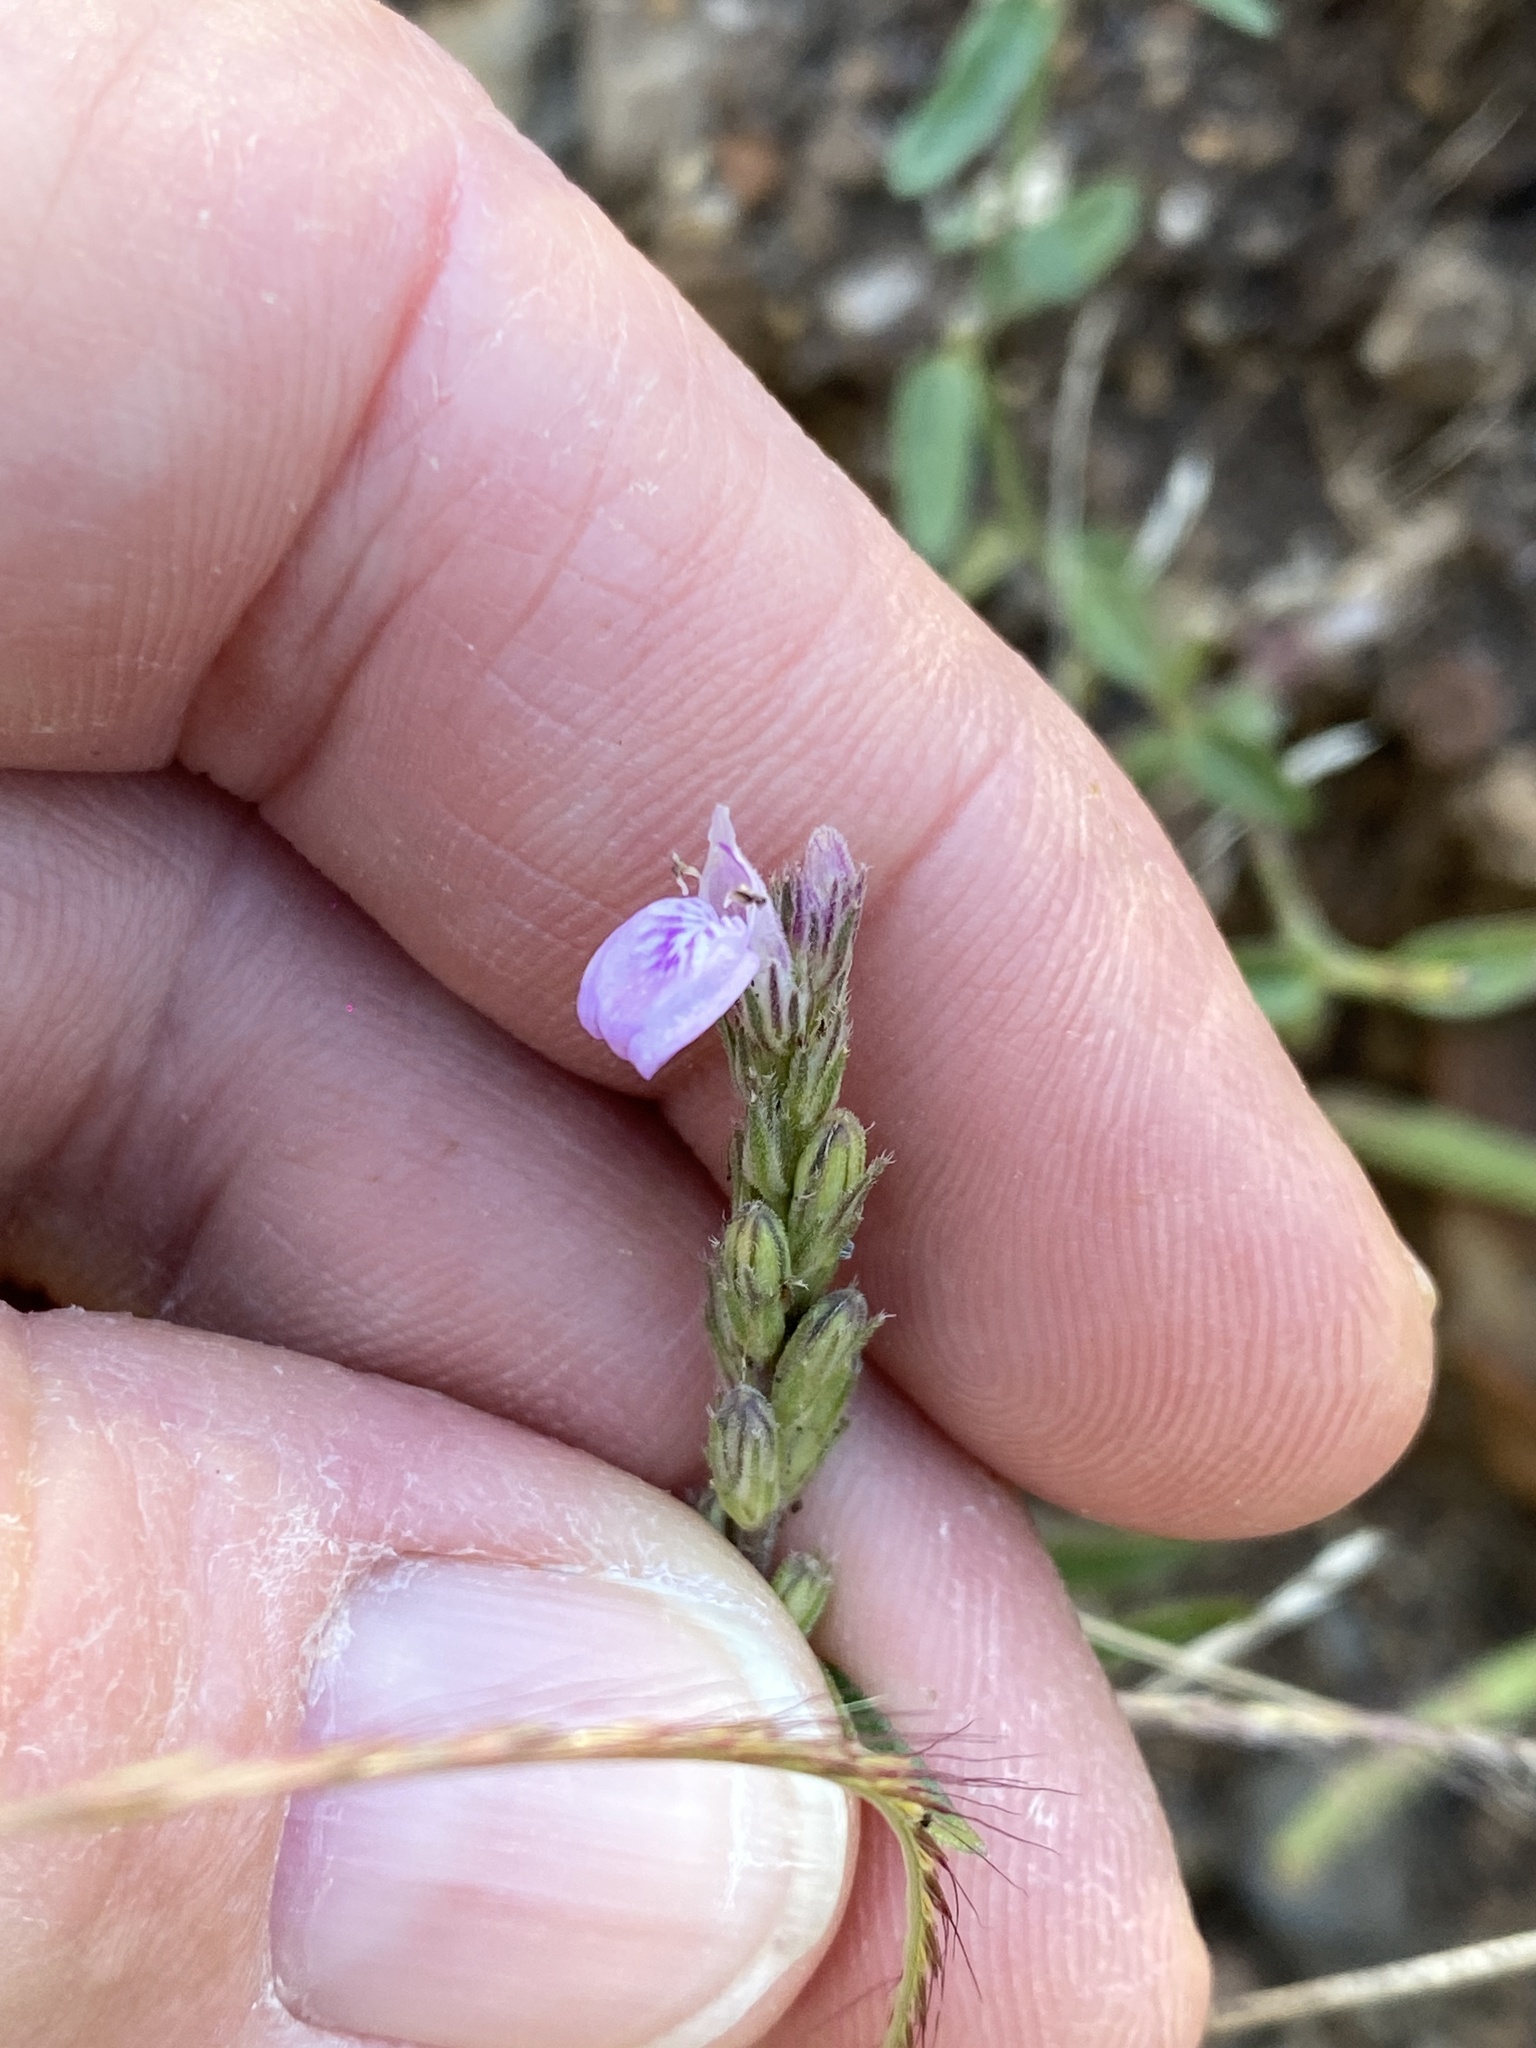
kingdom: Plantae
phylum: Tracheophyta
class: Magnoliopsida
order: Lamiales
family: Acanthaceae
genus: Rostellularia
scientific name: Rostellularia adscendens
